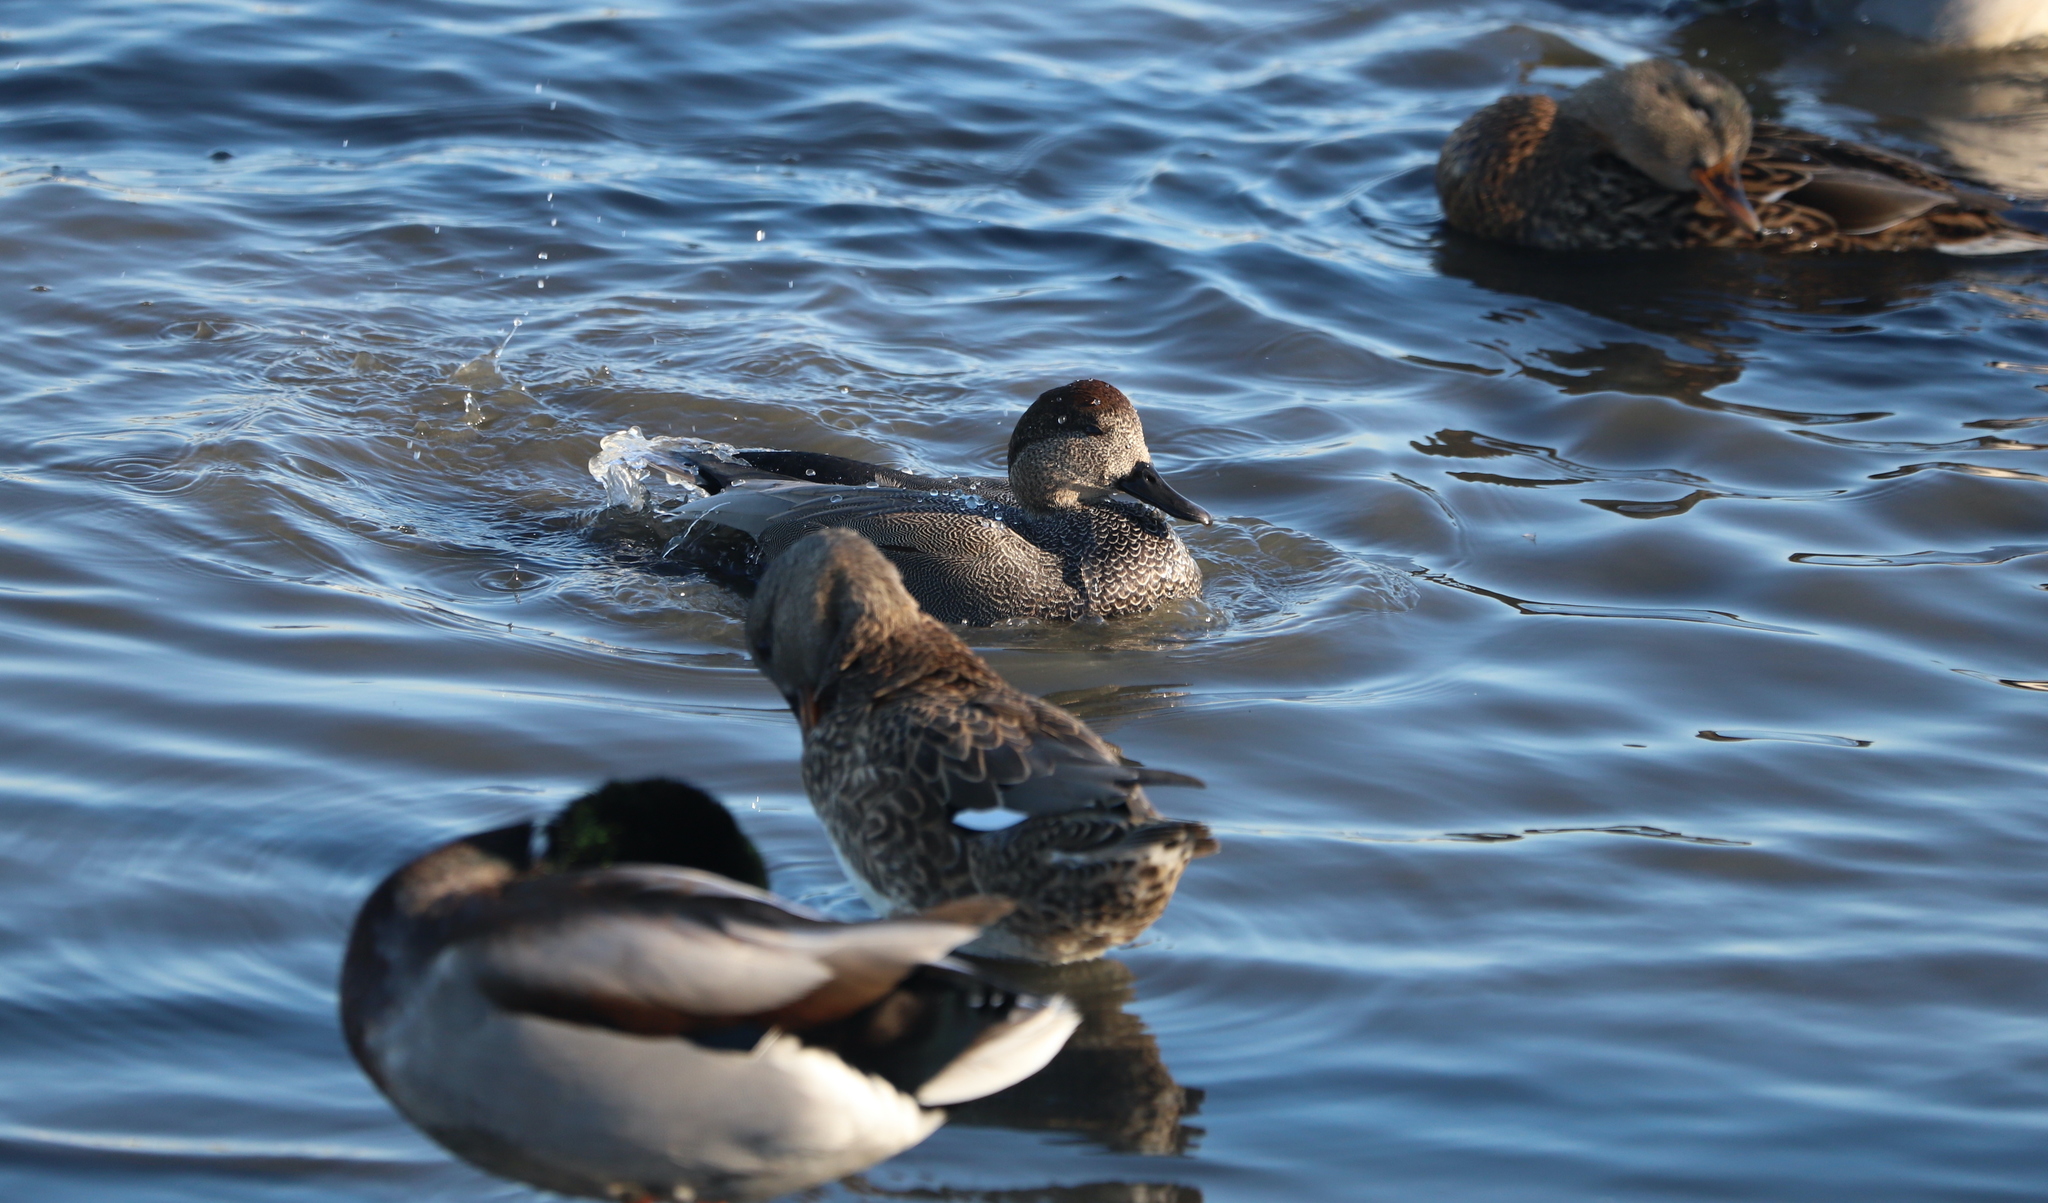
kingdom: Animalia
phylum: Chordata
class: Aves
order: Anseriformes
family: Anatidae
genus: Mareca
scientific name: Mareca strepera
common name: Gadwall
